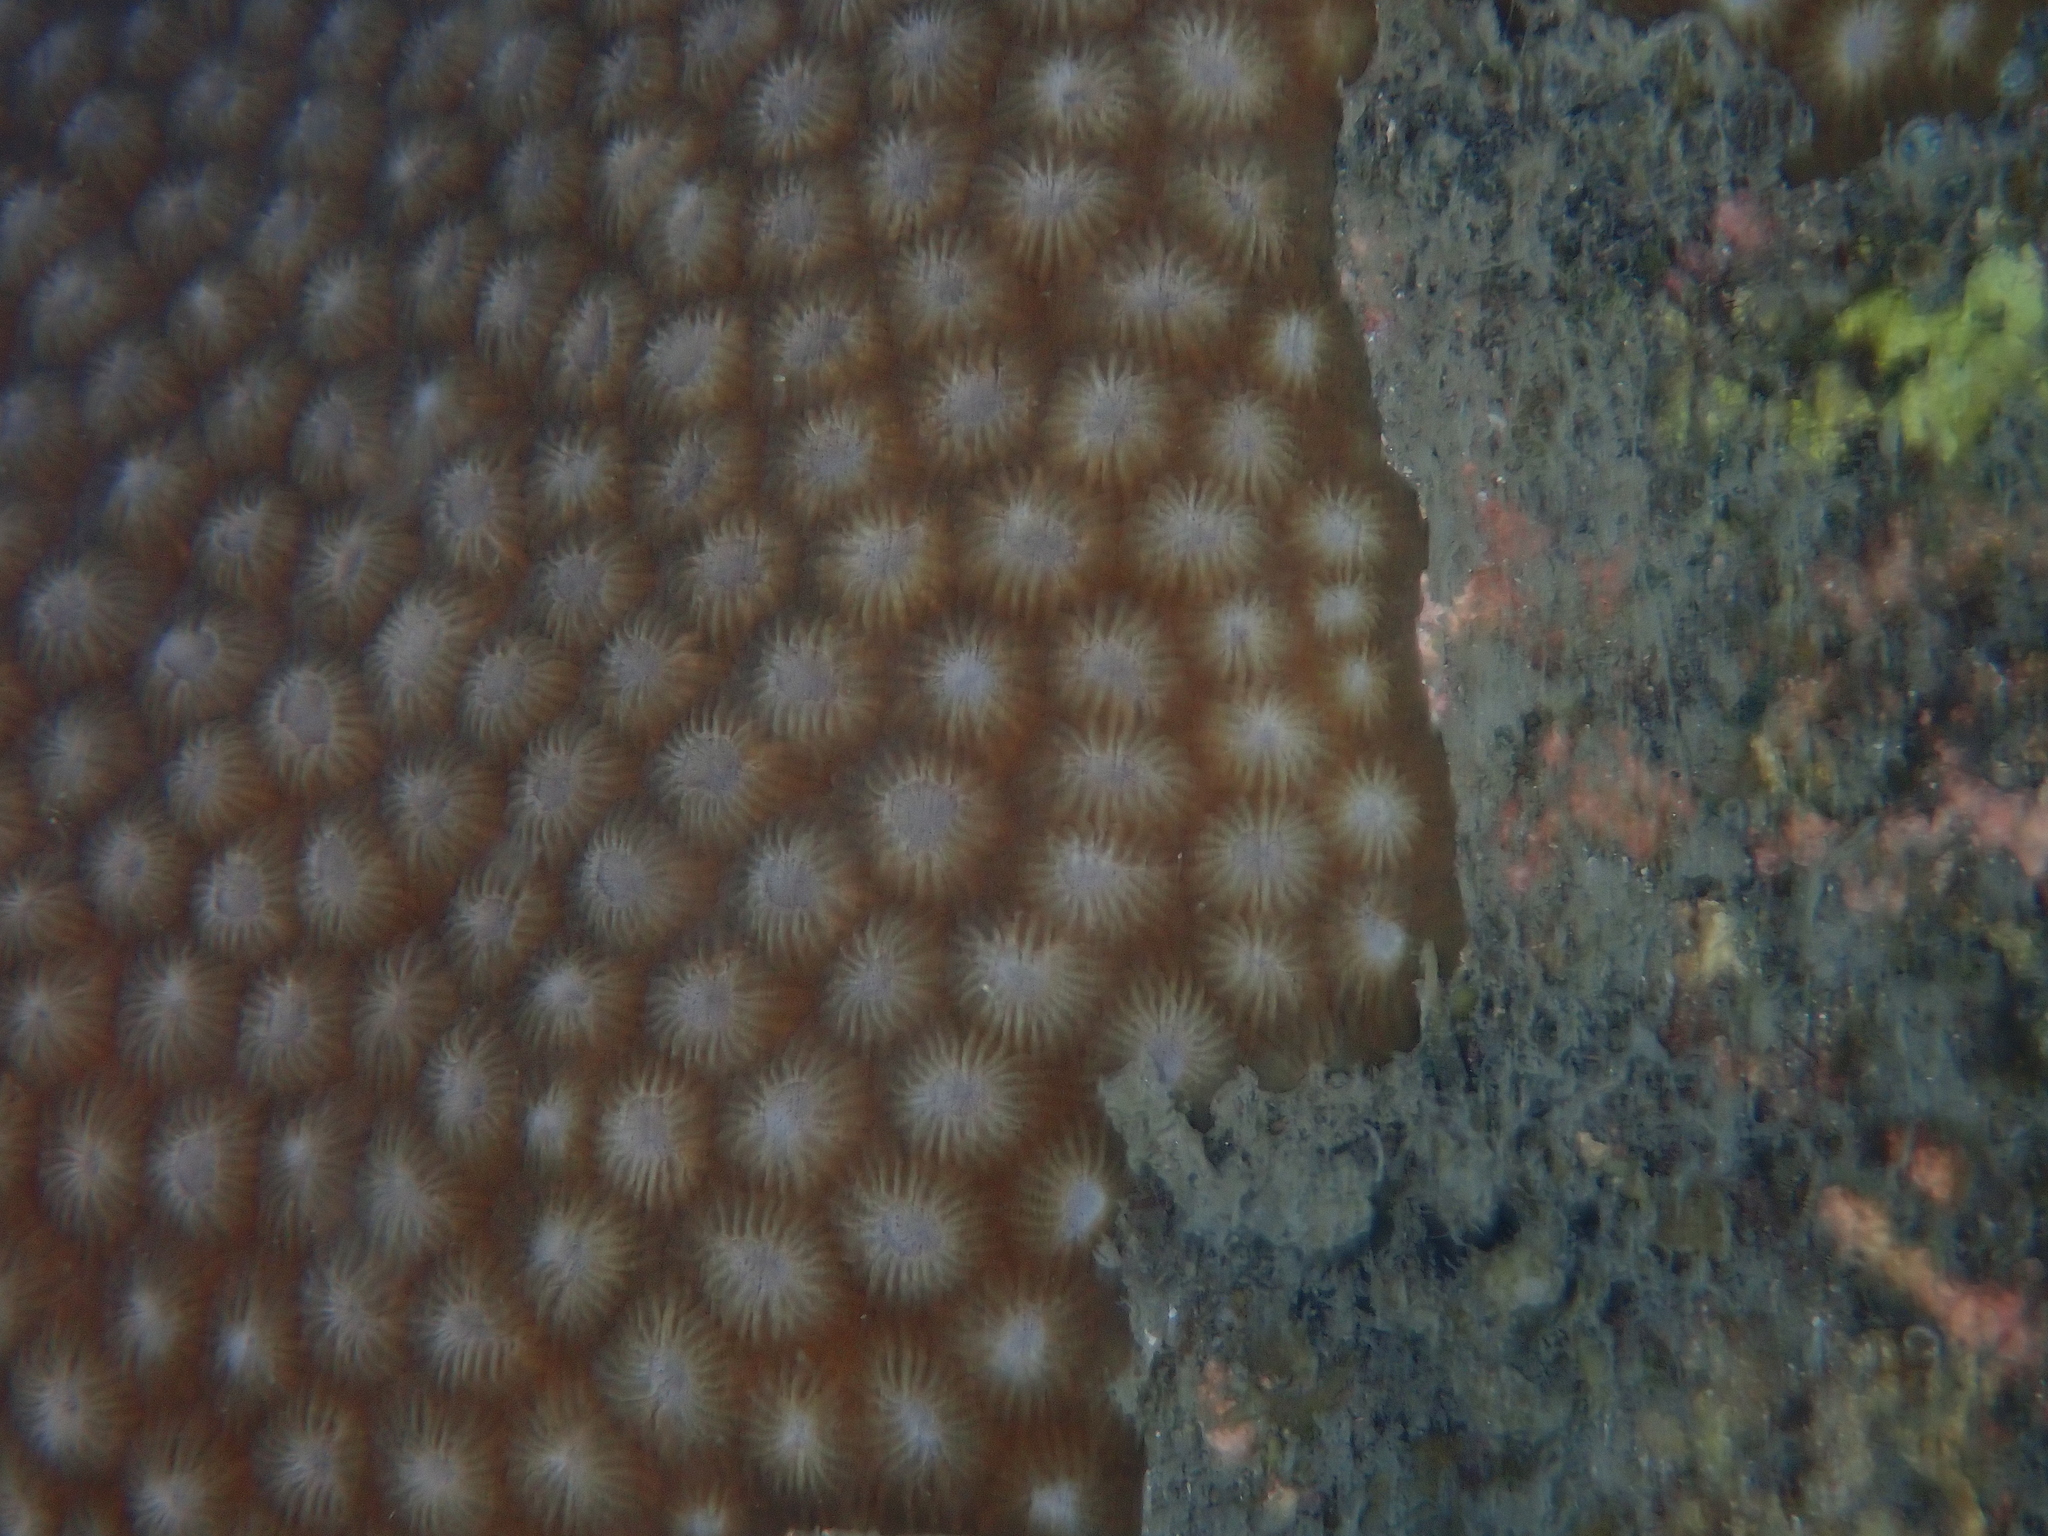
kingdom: Animalia
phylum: Cnidaria
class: Anthozoa
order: Scleractinia
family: Diploastraeidae
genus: Diploastrea
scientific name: Diploastrea heliopora
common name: Double-star coral
